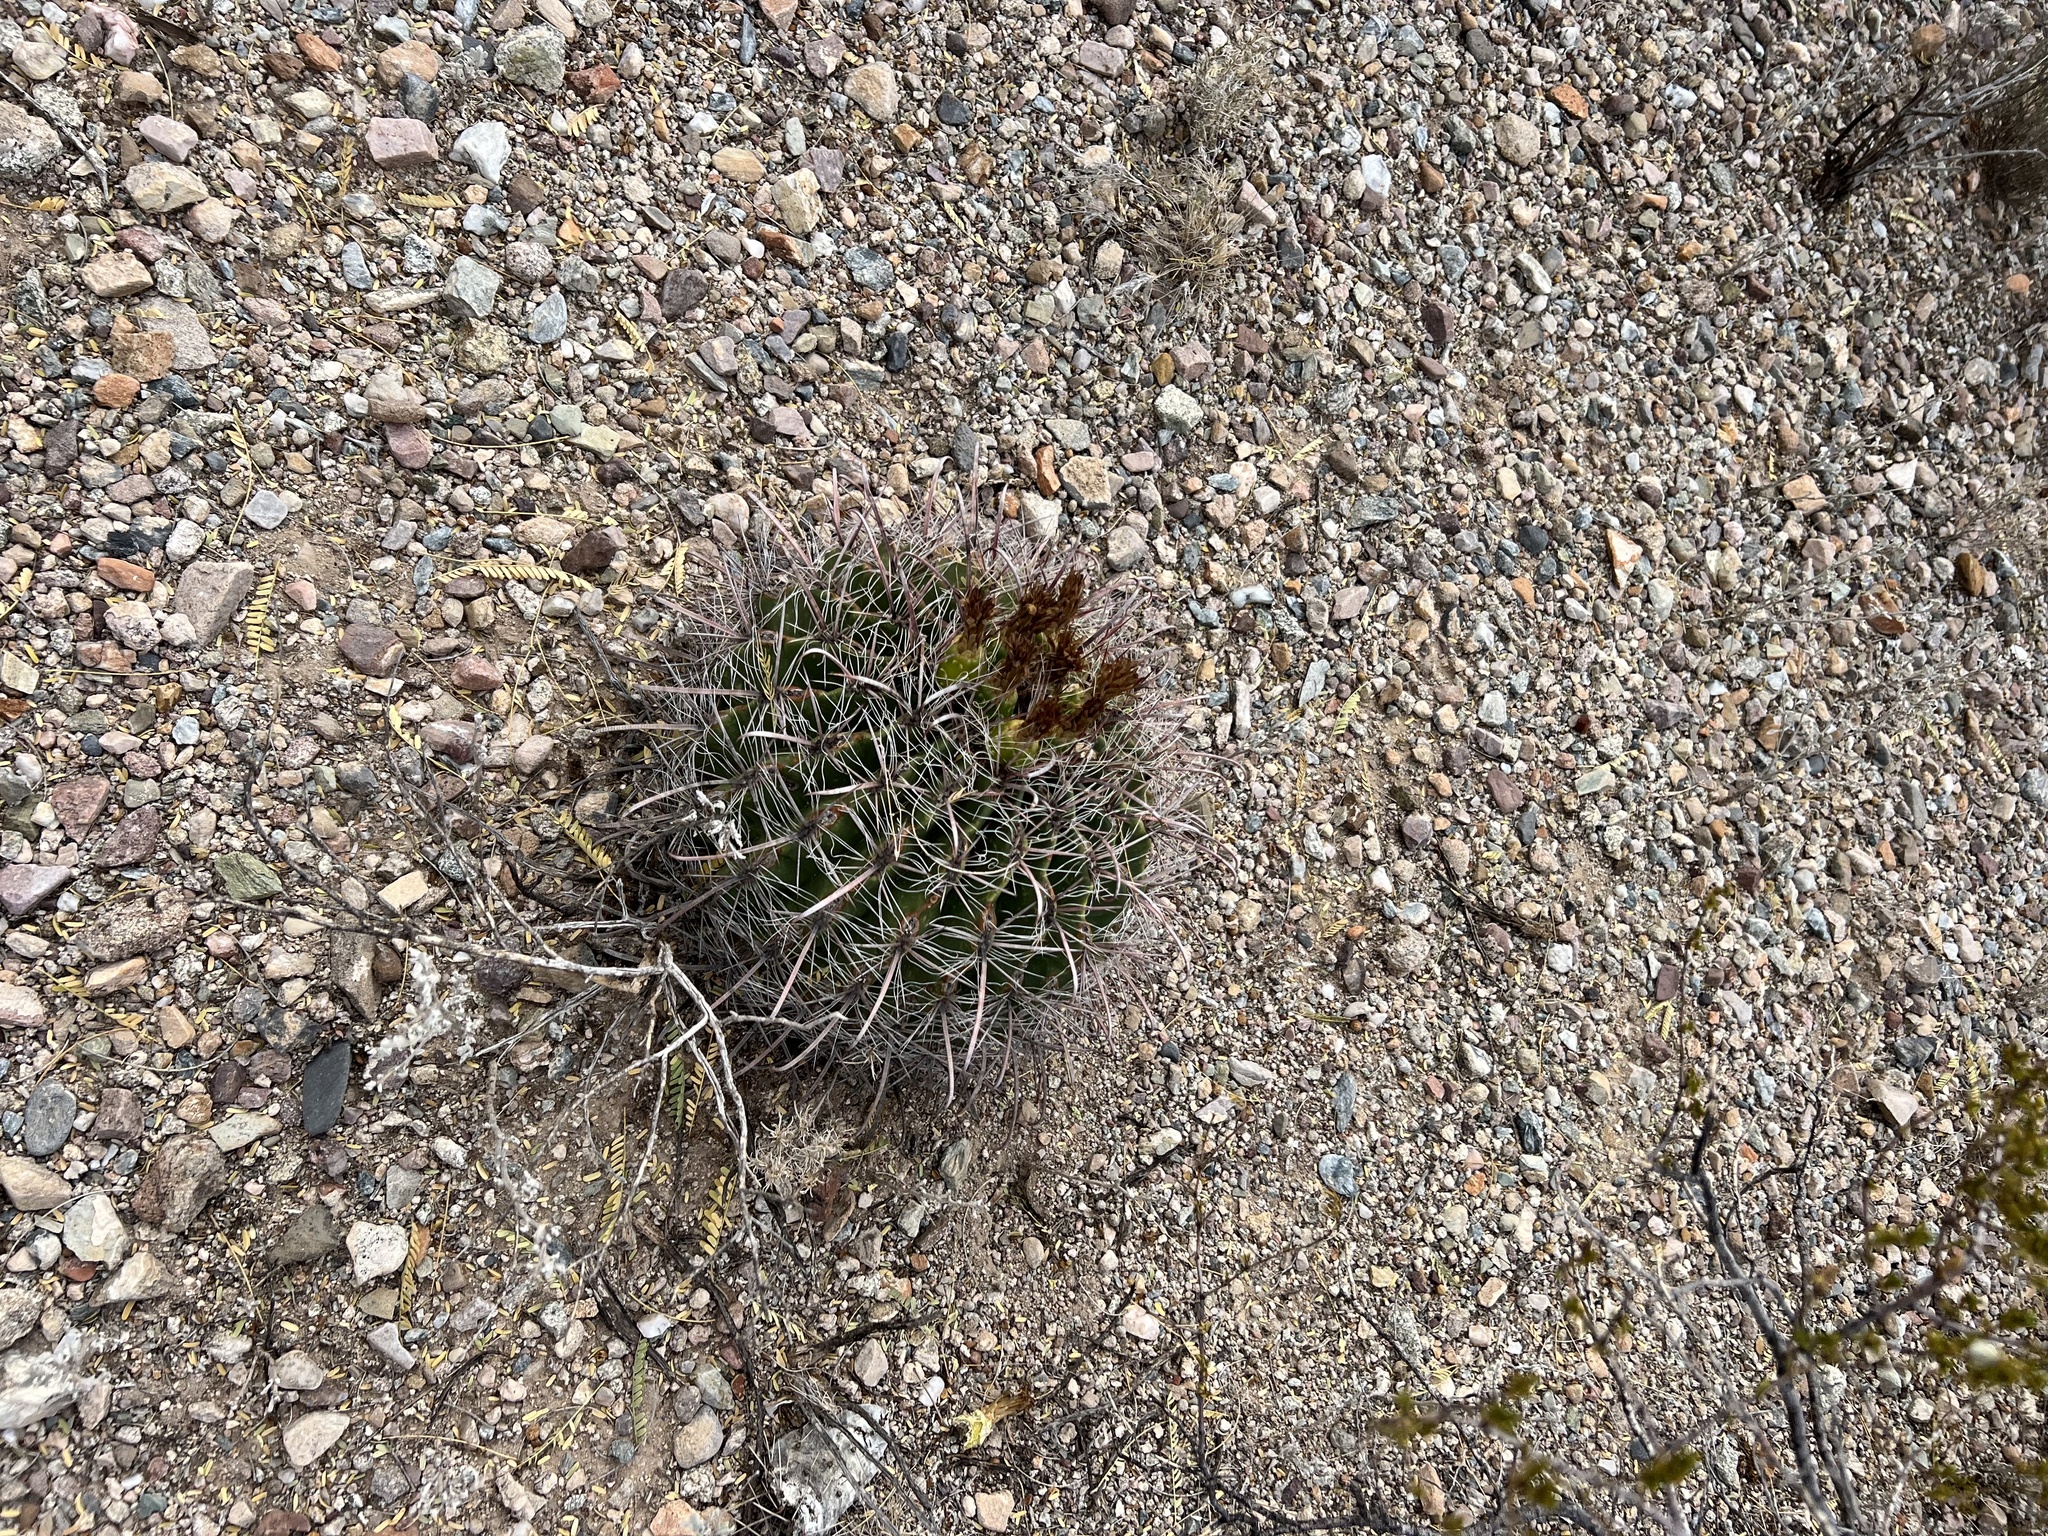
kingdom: Plantae
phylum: Tracheophyta
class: Magnoliopsida
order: Caryophyllales
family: Cactaceae
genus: Ferocactus
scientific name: Ferocactus wislizeni
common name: Candy barrel cactus
